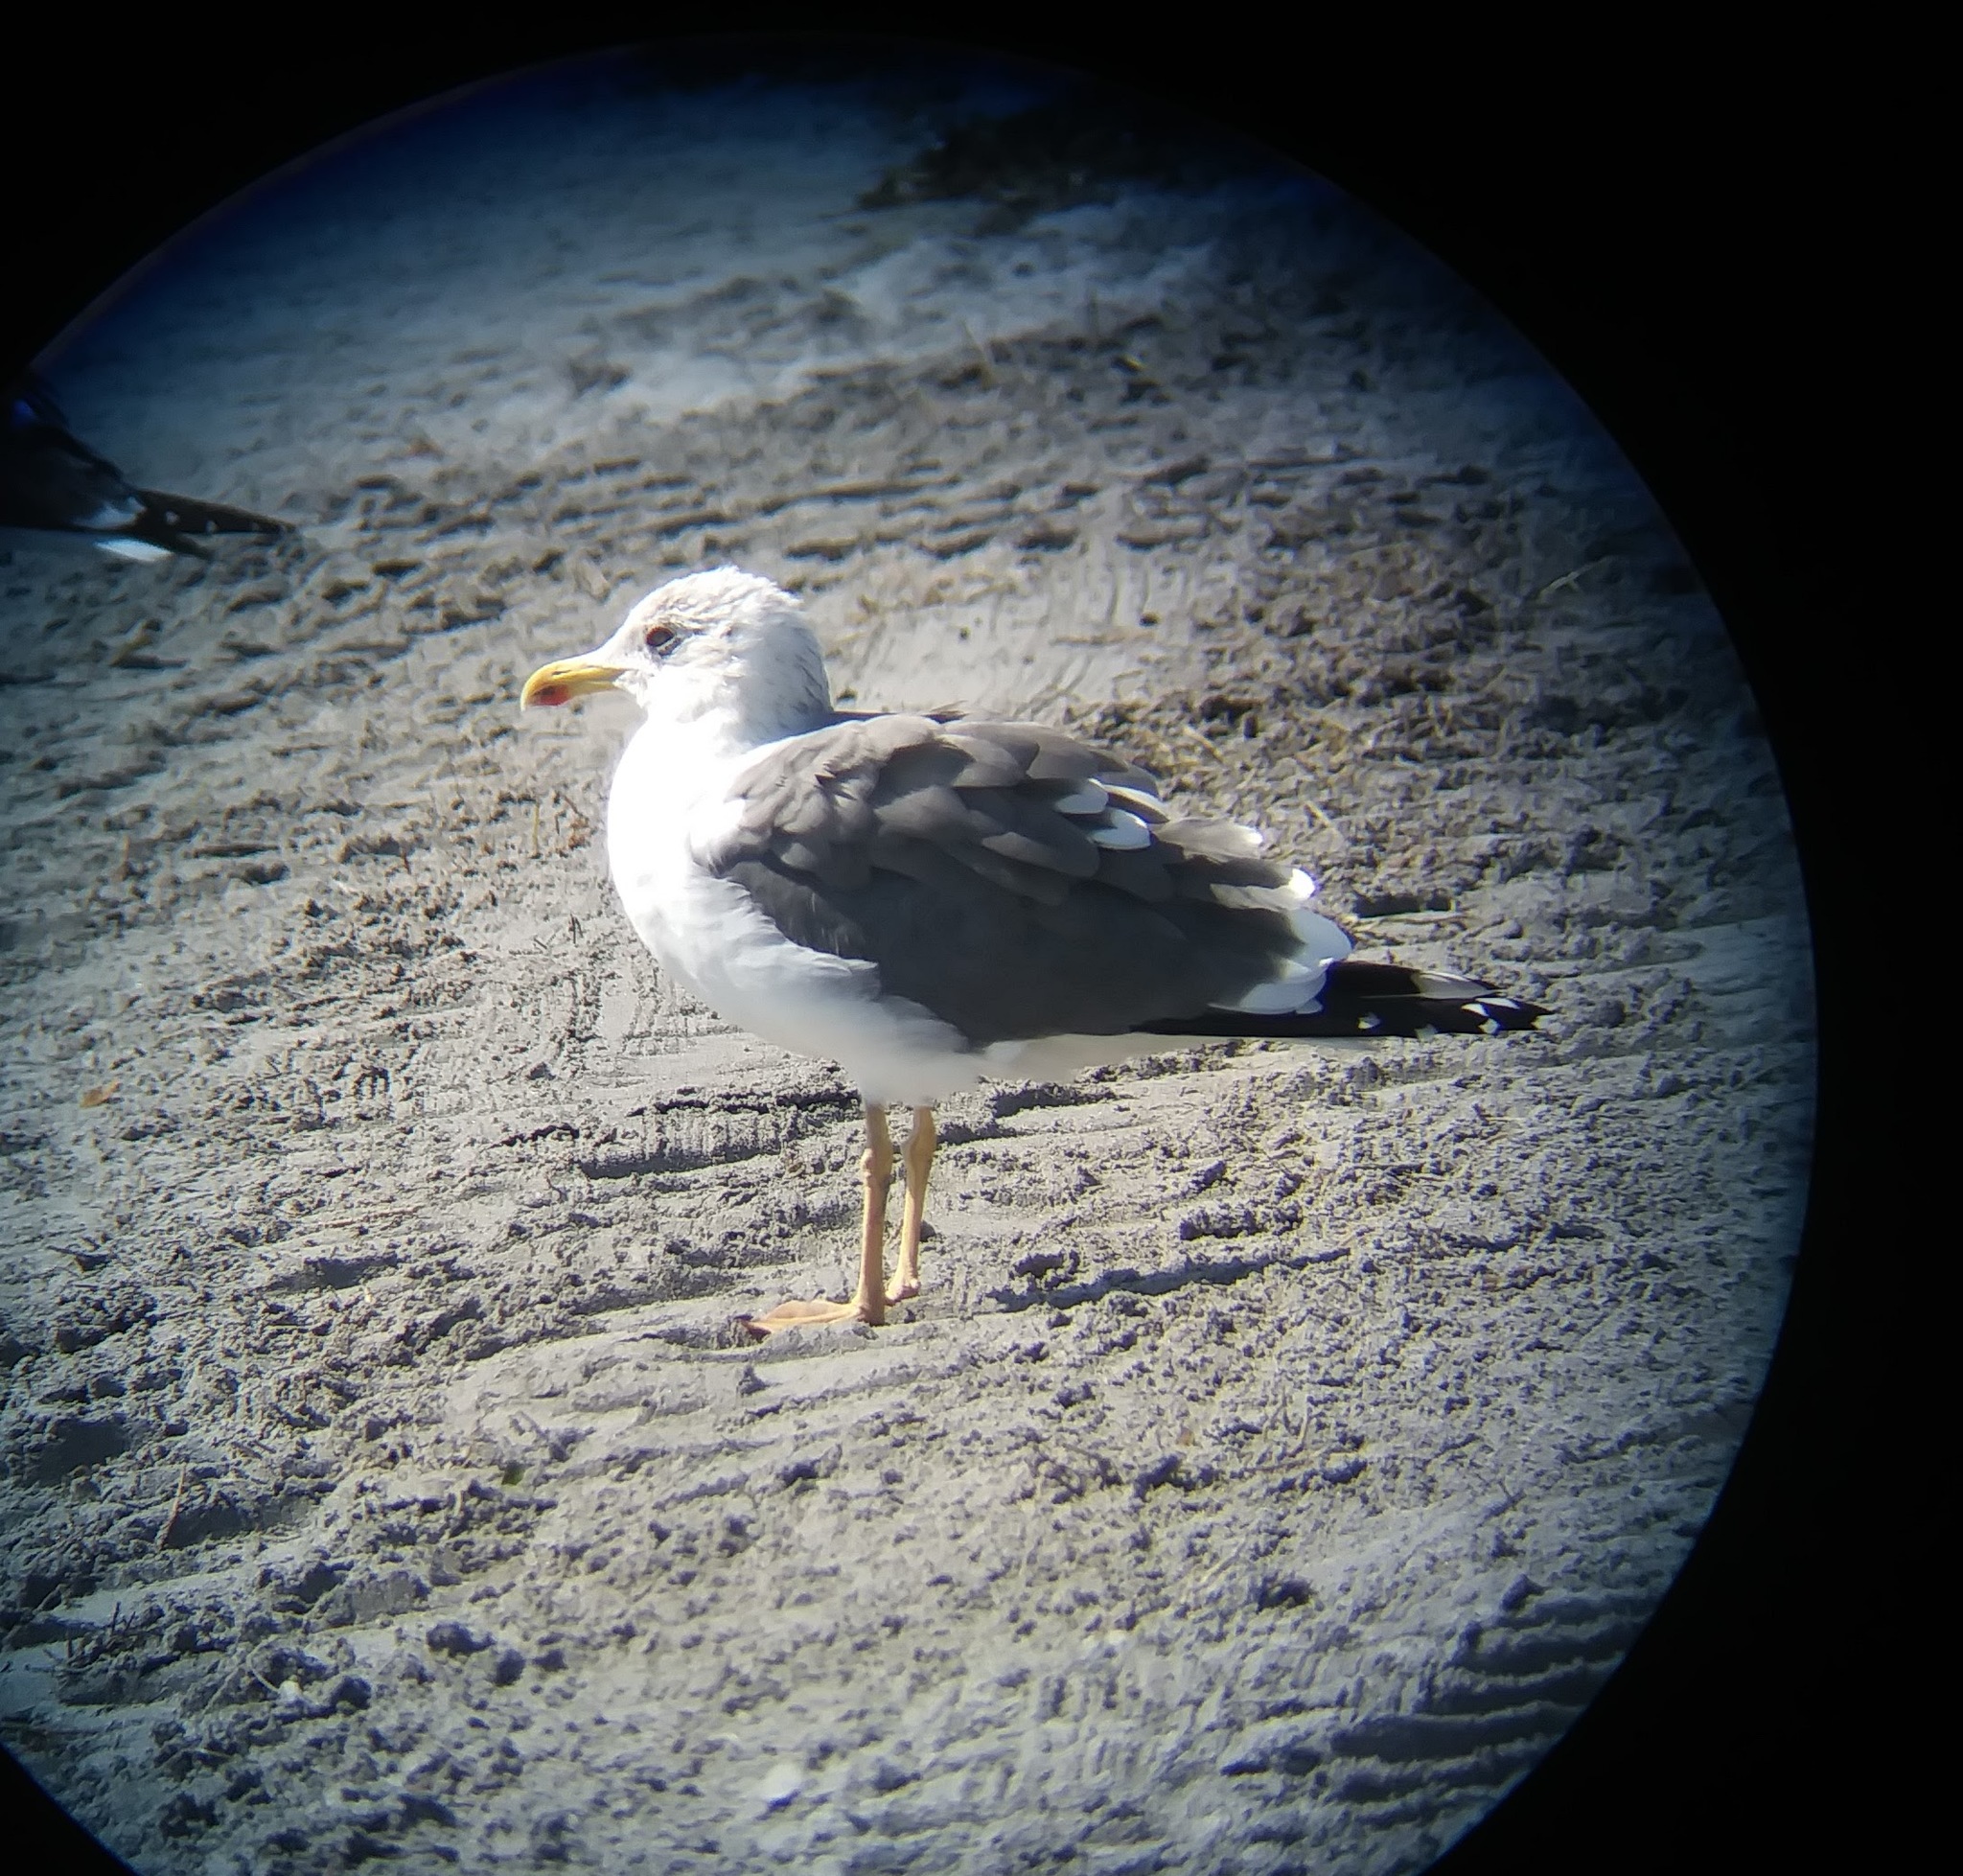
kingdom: Animalia
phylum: Chordata
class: Aves
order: Charadriiformes
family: Laridae
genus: Larus
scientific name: Larus fuscus
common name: Lesser black-backed gull
